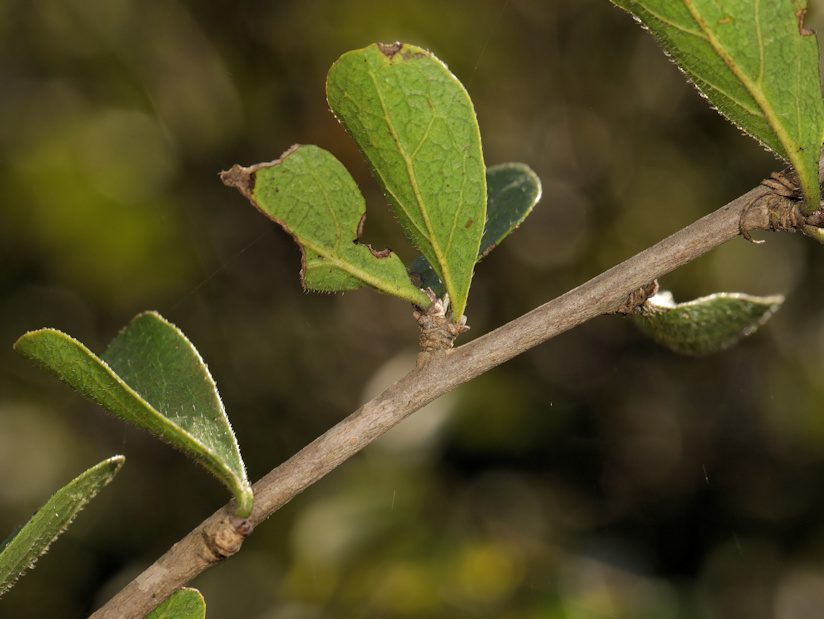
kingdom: Plantae
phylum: Tracheophyta
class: Magnoliopsida
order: Boraginales
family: Ehretiaceae
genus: Ehretia
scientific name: Ehretia rigida
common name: Cape lilac
